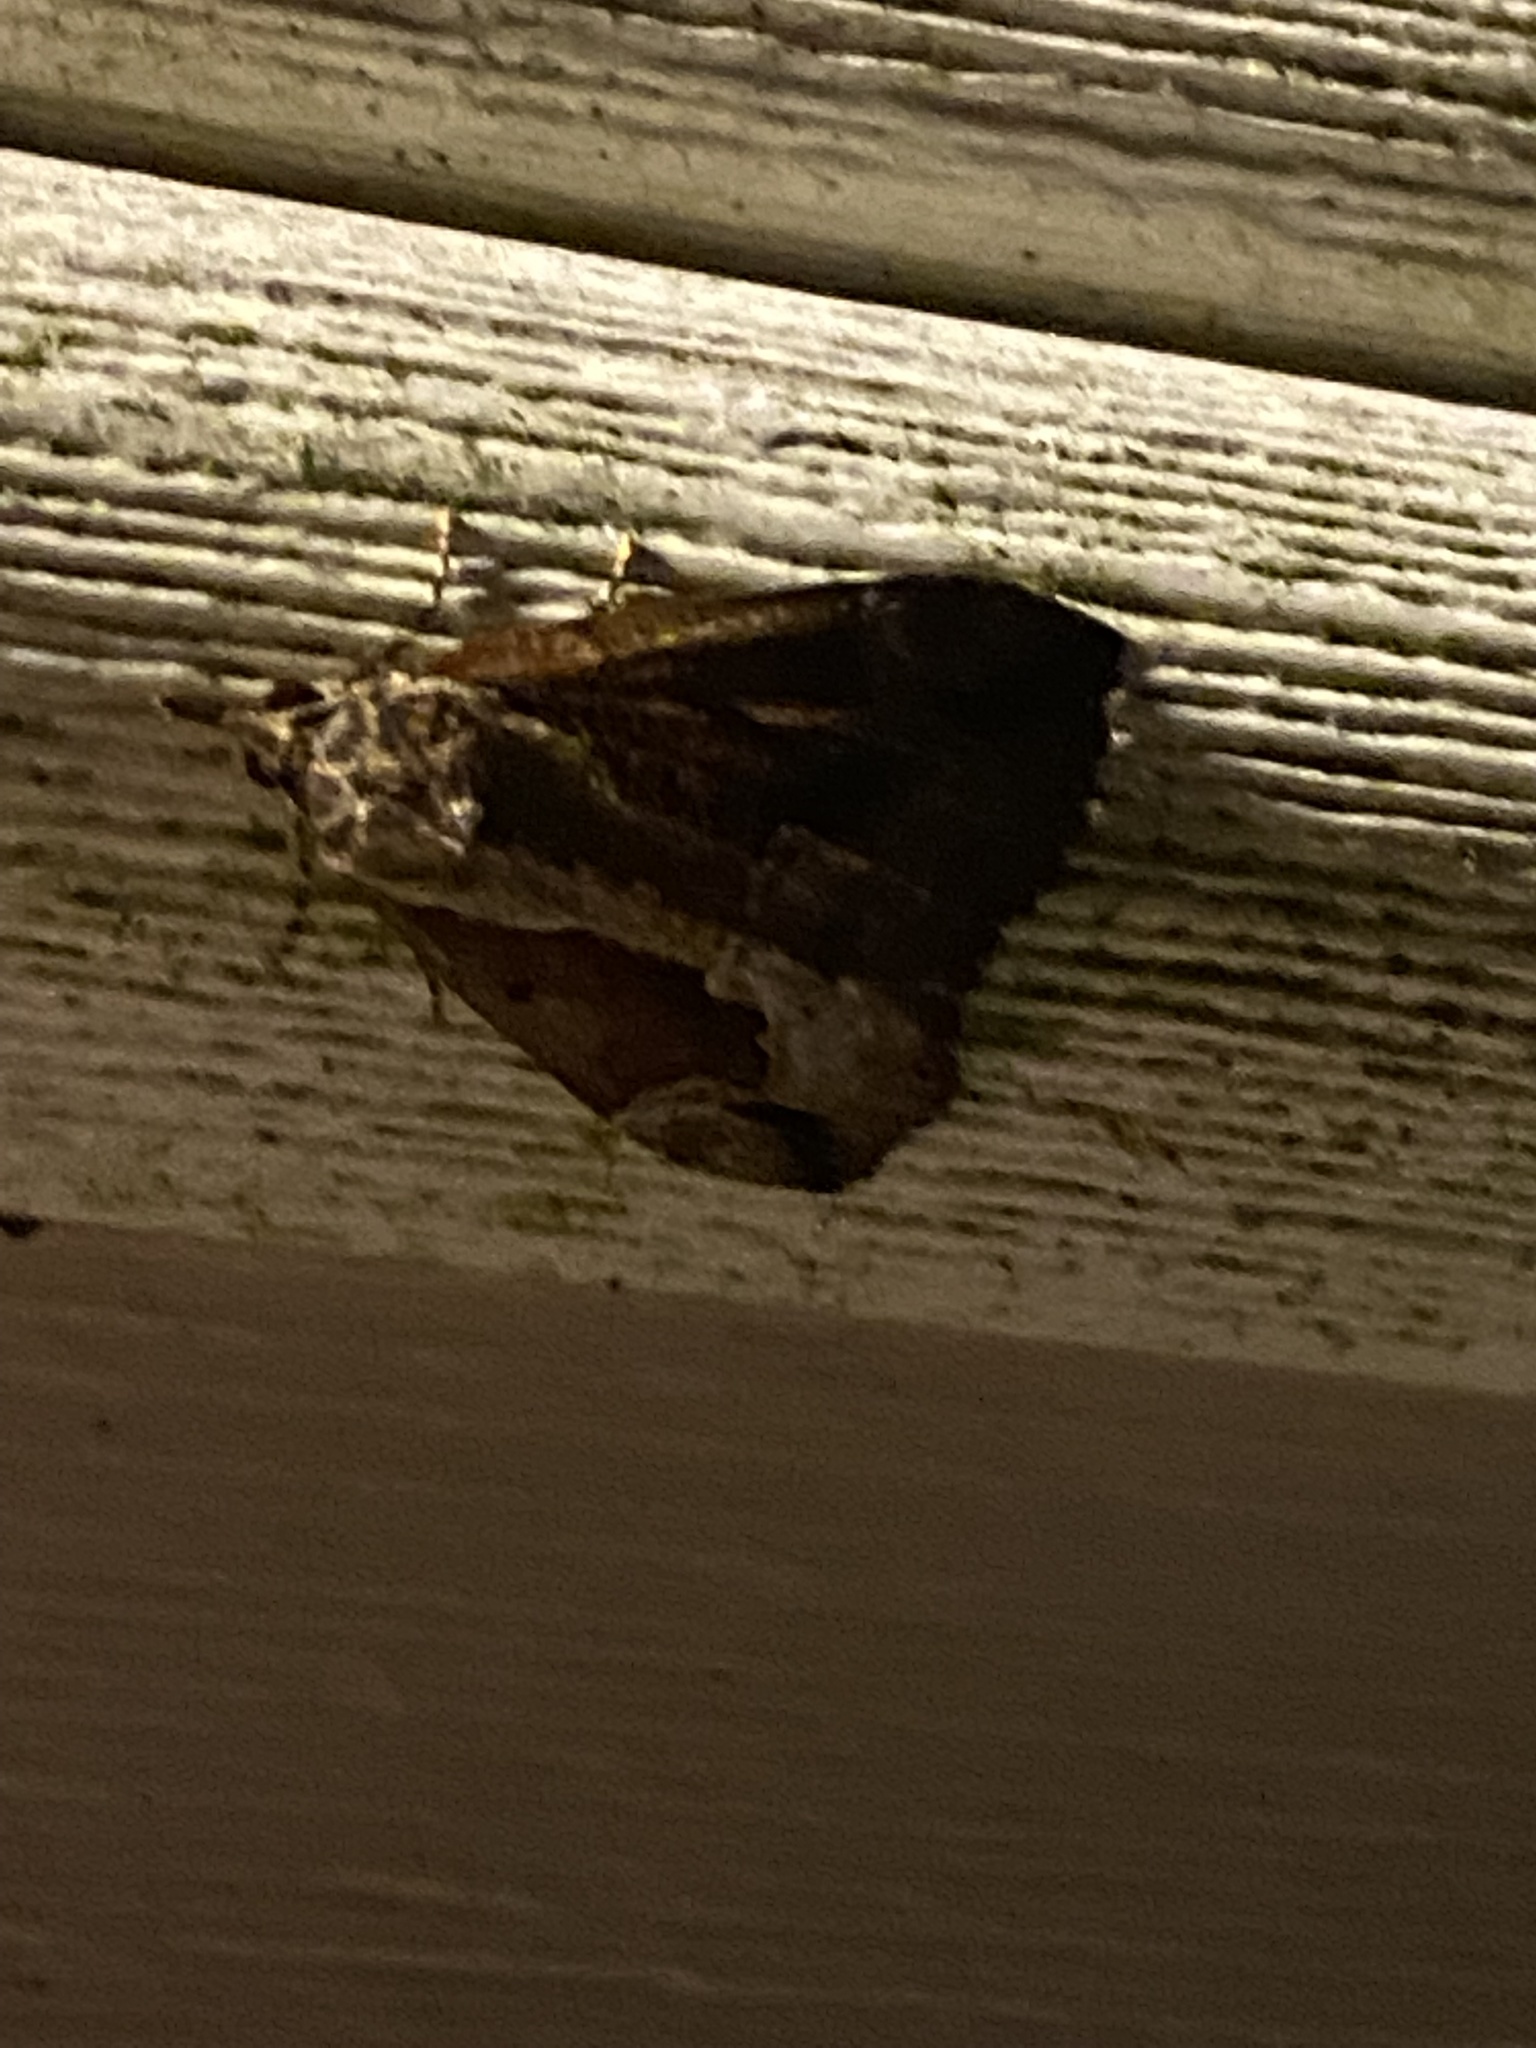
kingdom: Animalia
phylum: Arthropoda
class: Insecta
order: Lepidoptera
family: Erebidae
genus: Hypena
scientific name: Hypena baltimoralis
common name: Baltimore snout
